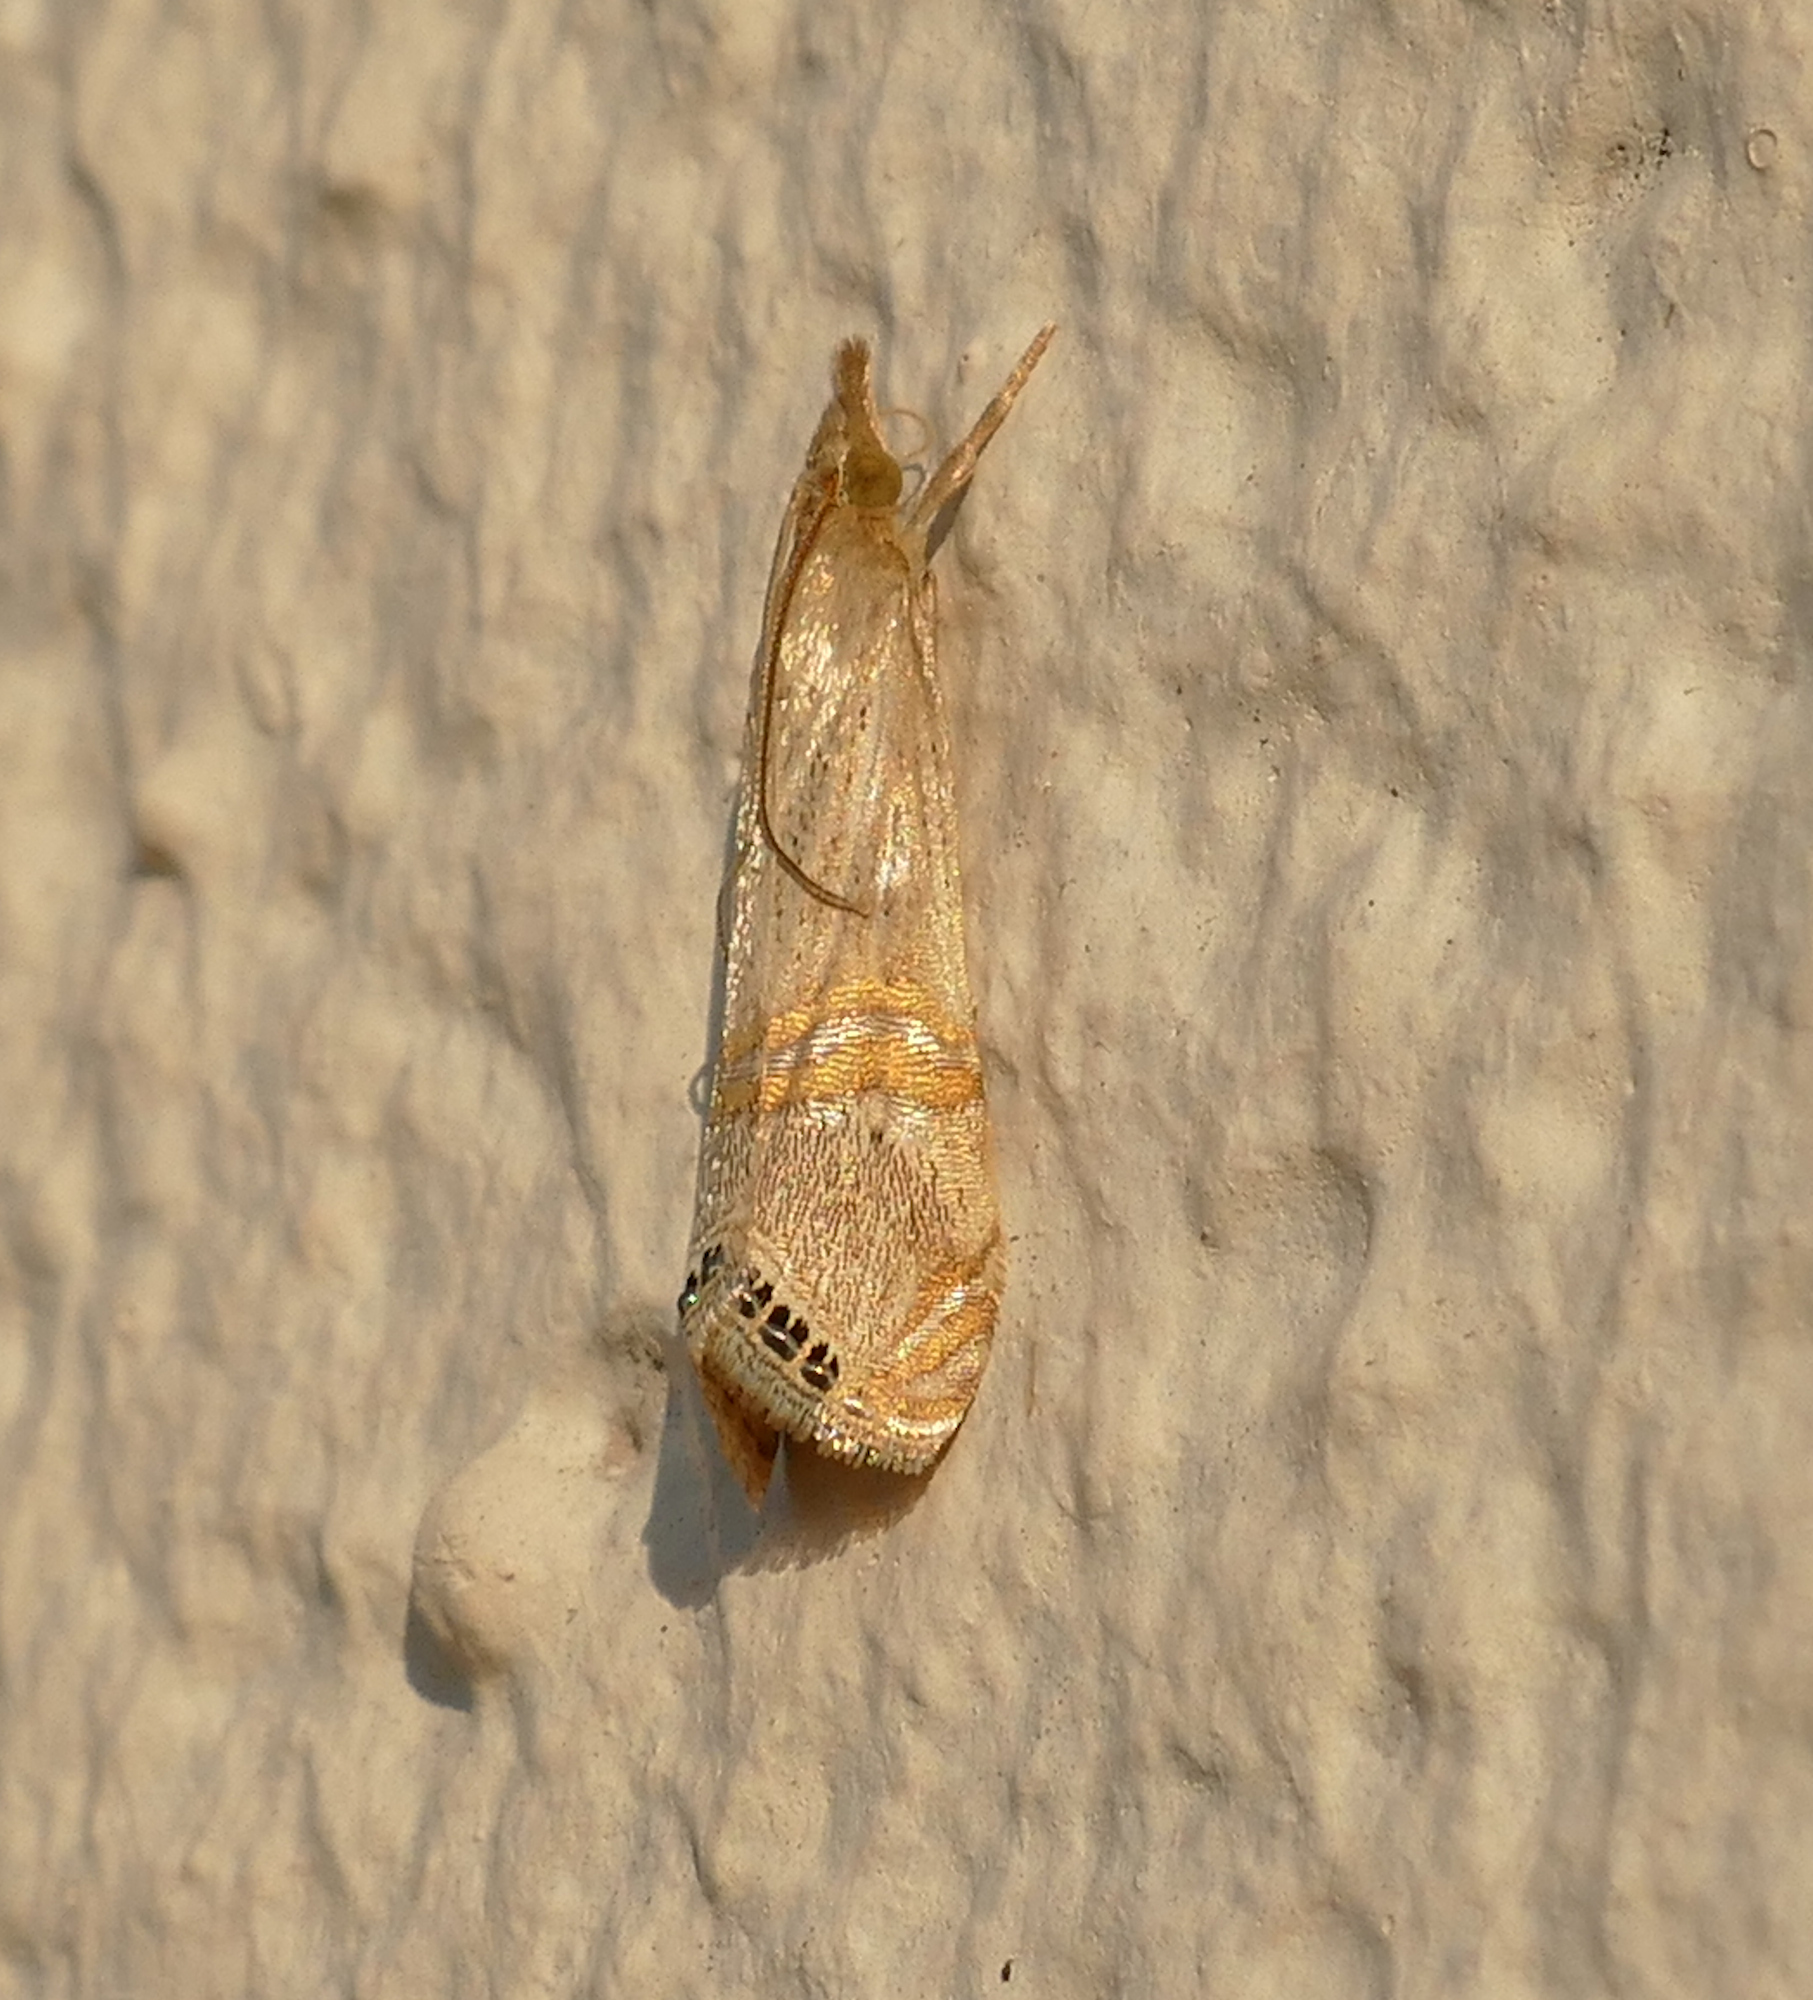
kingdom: Animalia
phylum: Arthropoda
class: Insecta
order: Lepidoptera
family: Crambidae
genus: Euchromius
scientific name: Euchromius ocellea
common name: Necklace veneer moth
